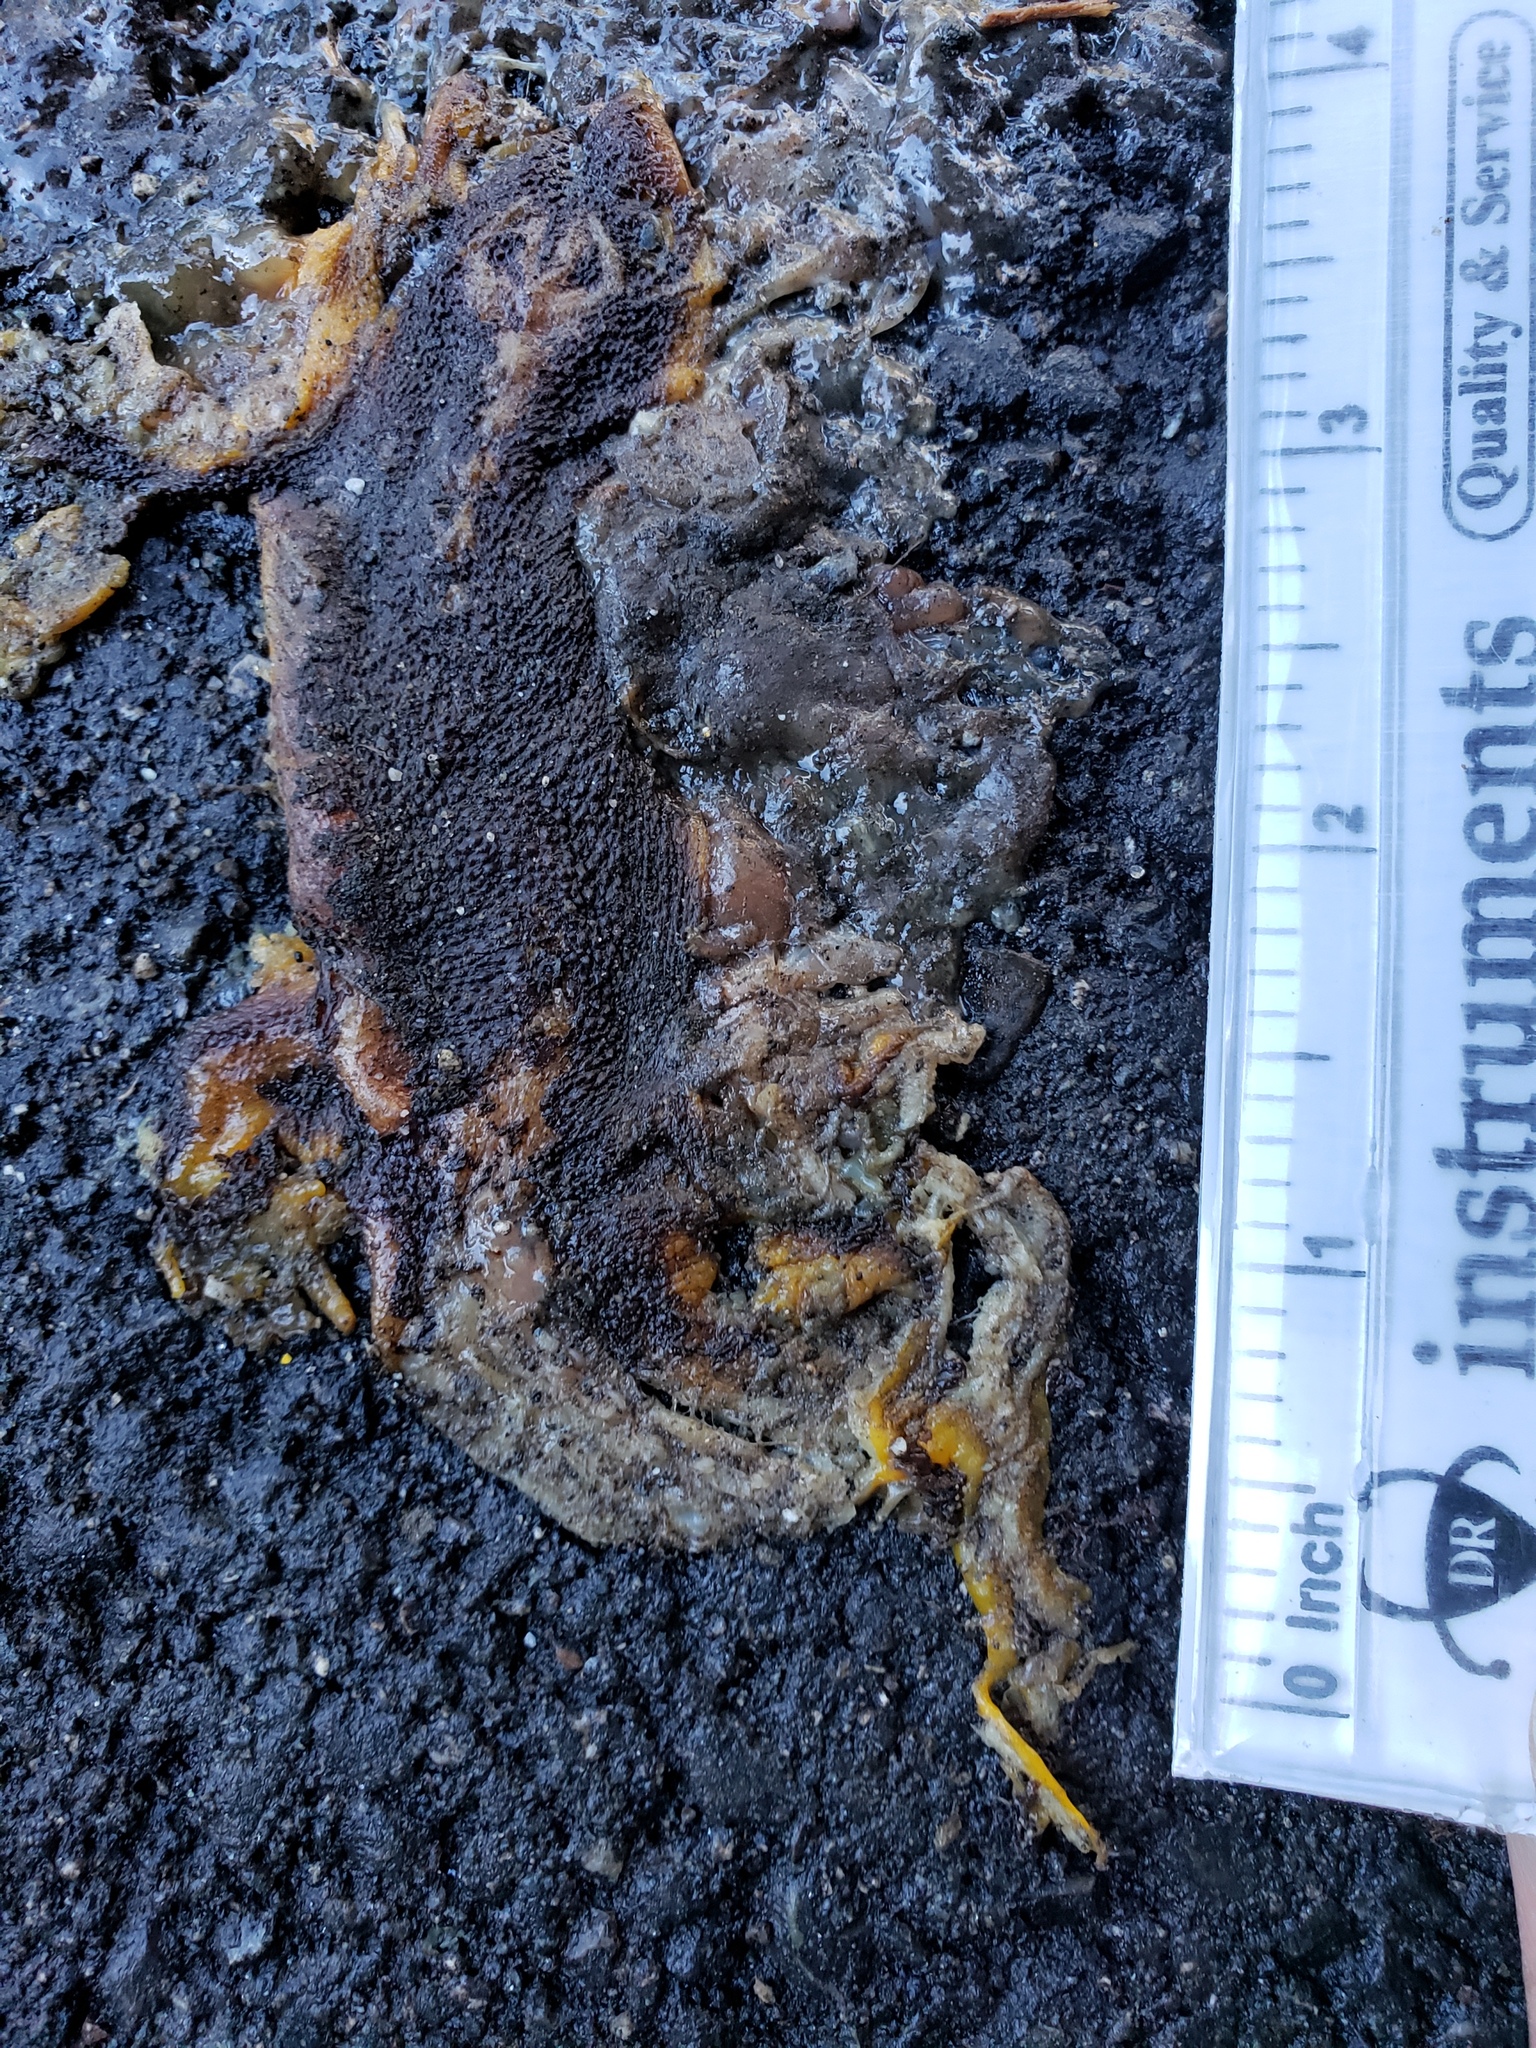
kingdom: Animalia
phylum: Chordata
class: Amphibia
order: Caudata
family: Salamandridae
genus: Taricha
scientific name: Taricha
